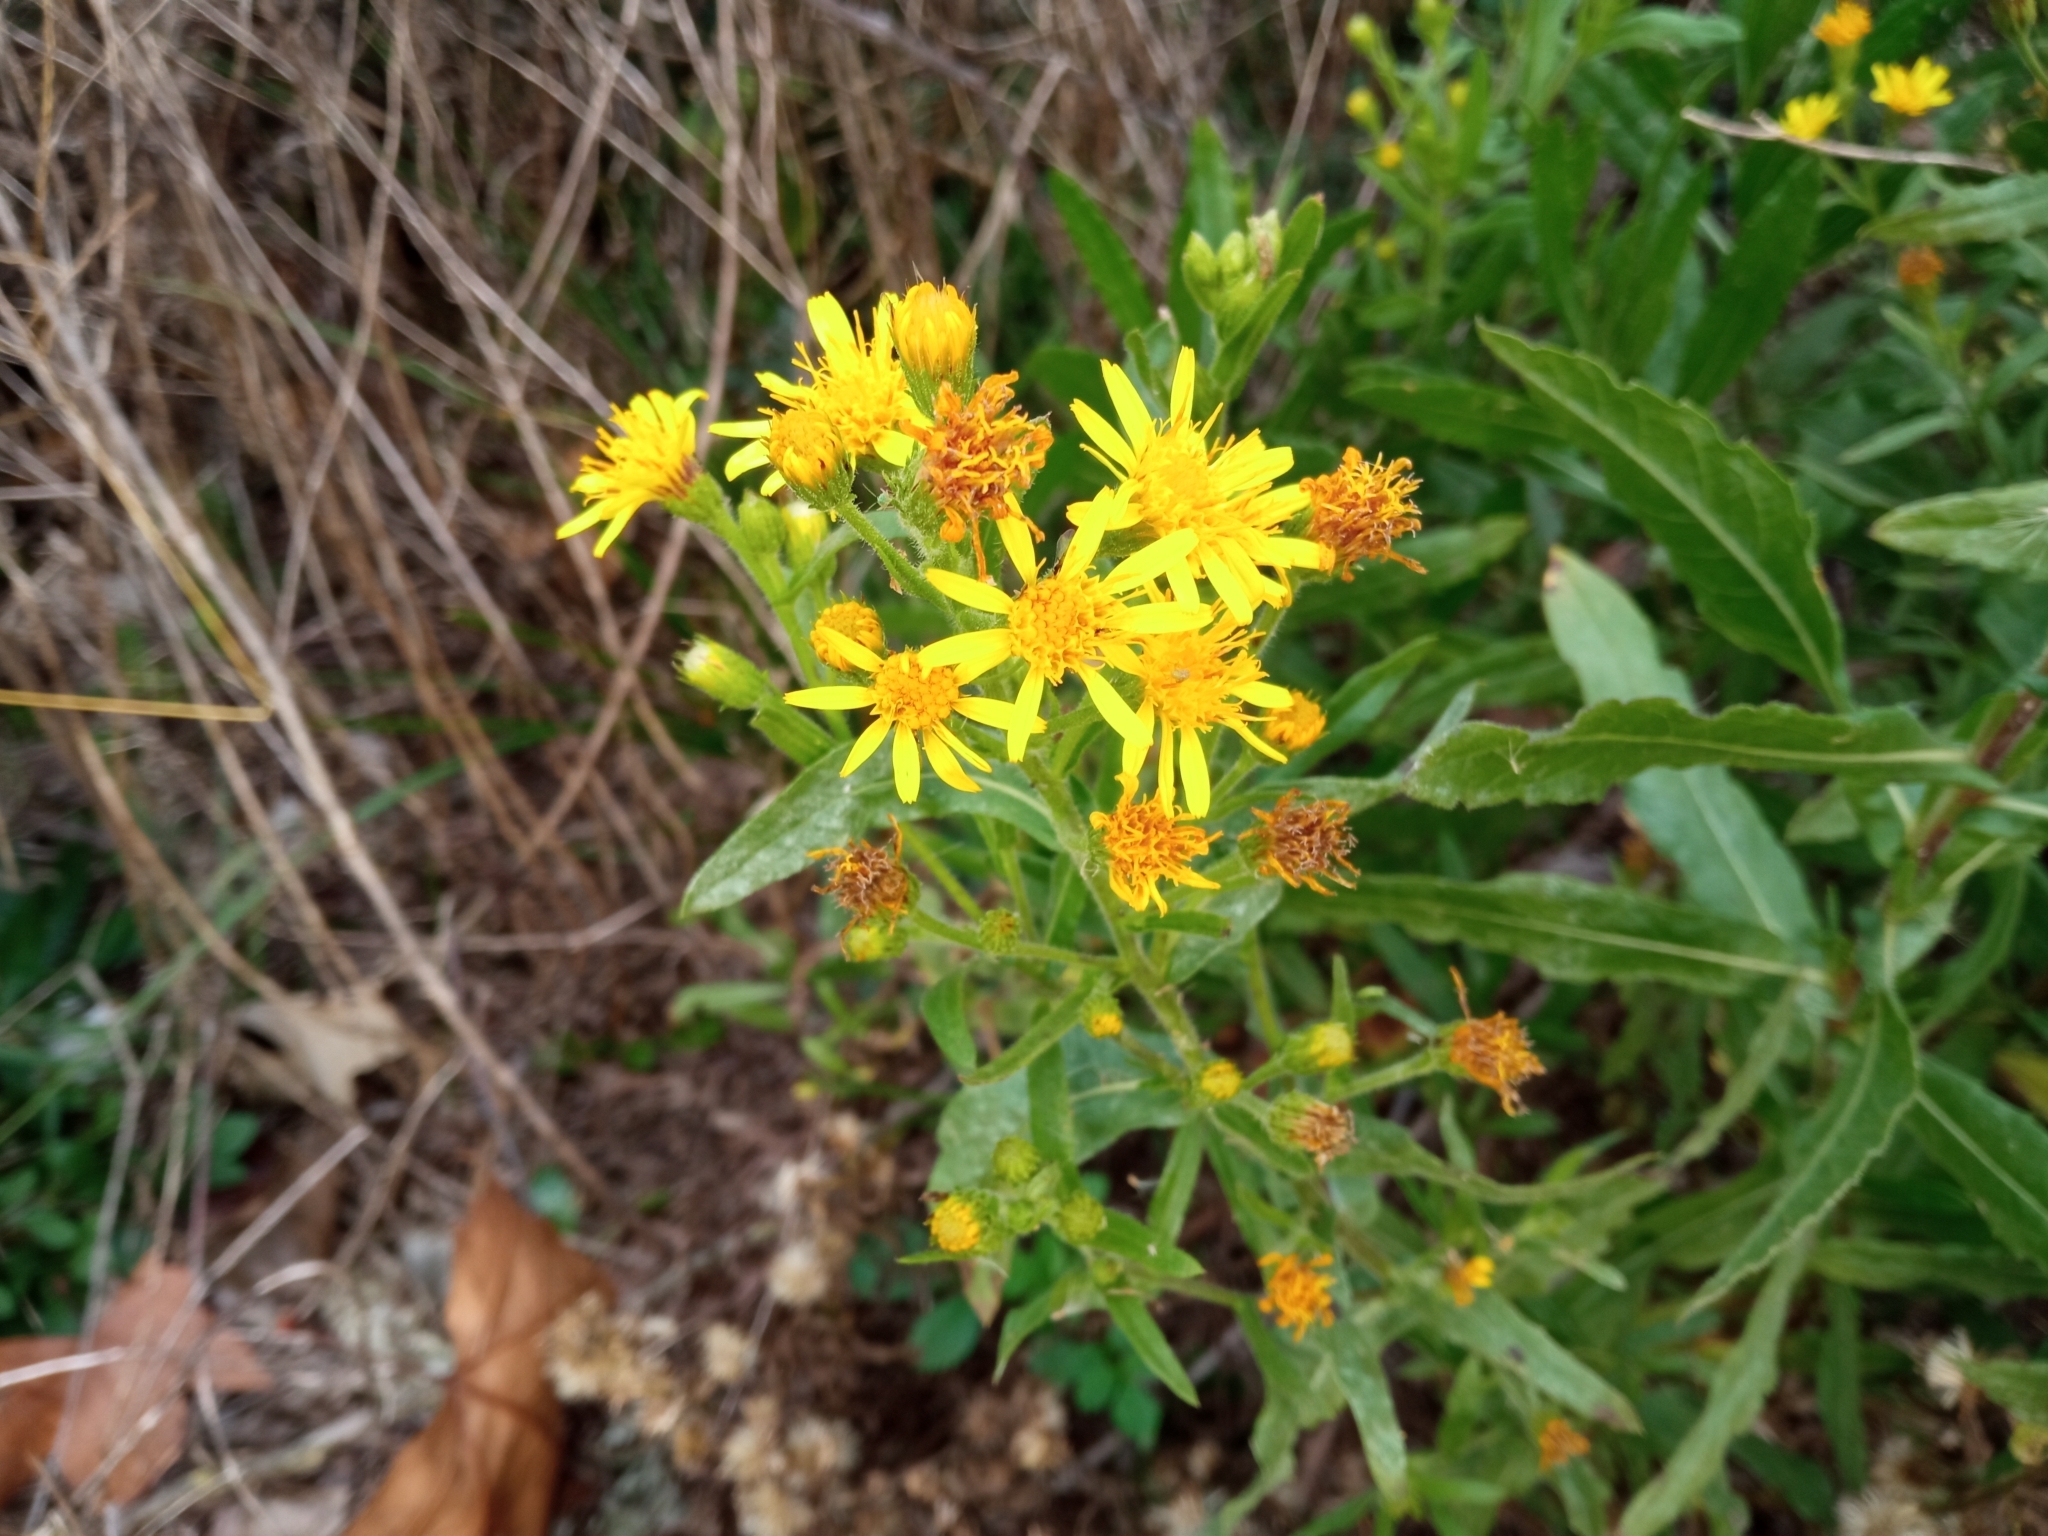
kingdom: Plantae
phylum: Tracheophyta
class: Magnoliopsida
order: Asterales
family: Asteraceae
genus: Dittrichia
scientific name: Dittrichia viscosa
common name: Woody fleabane
